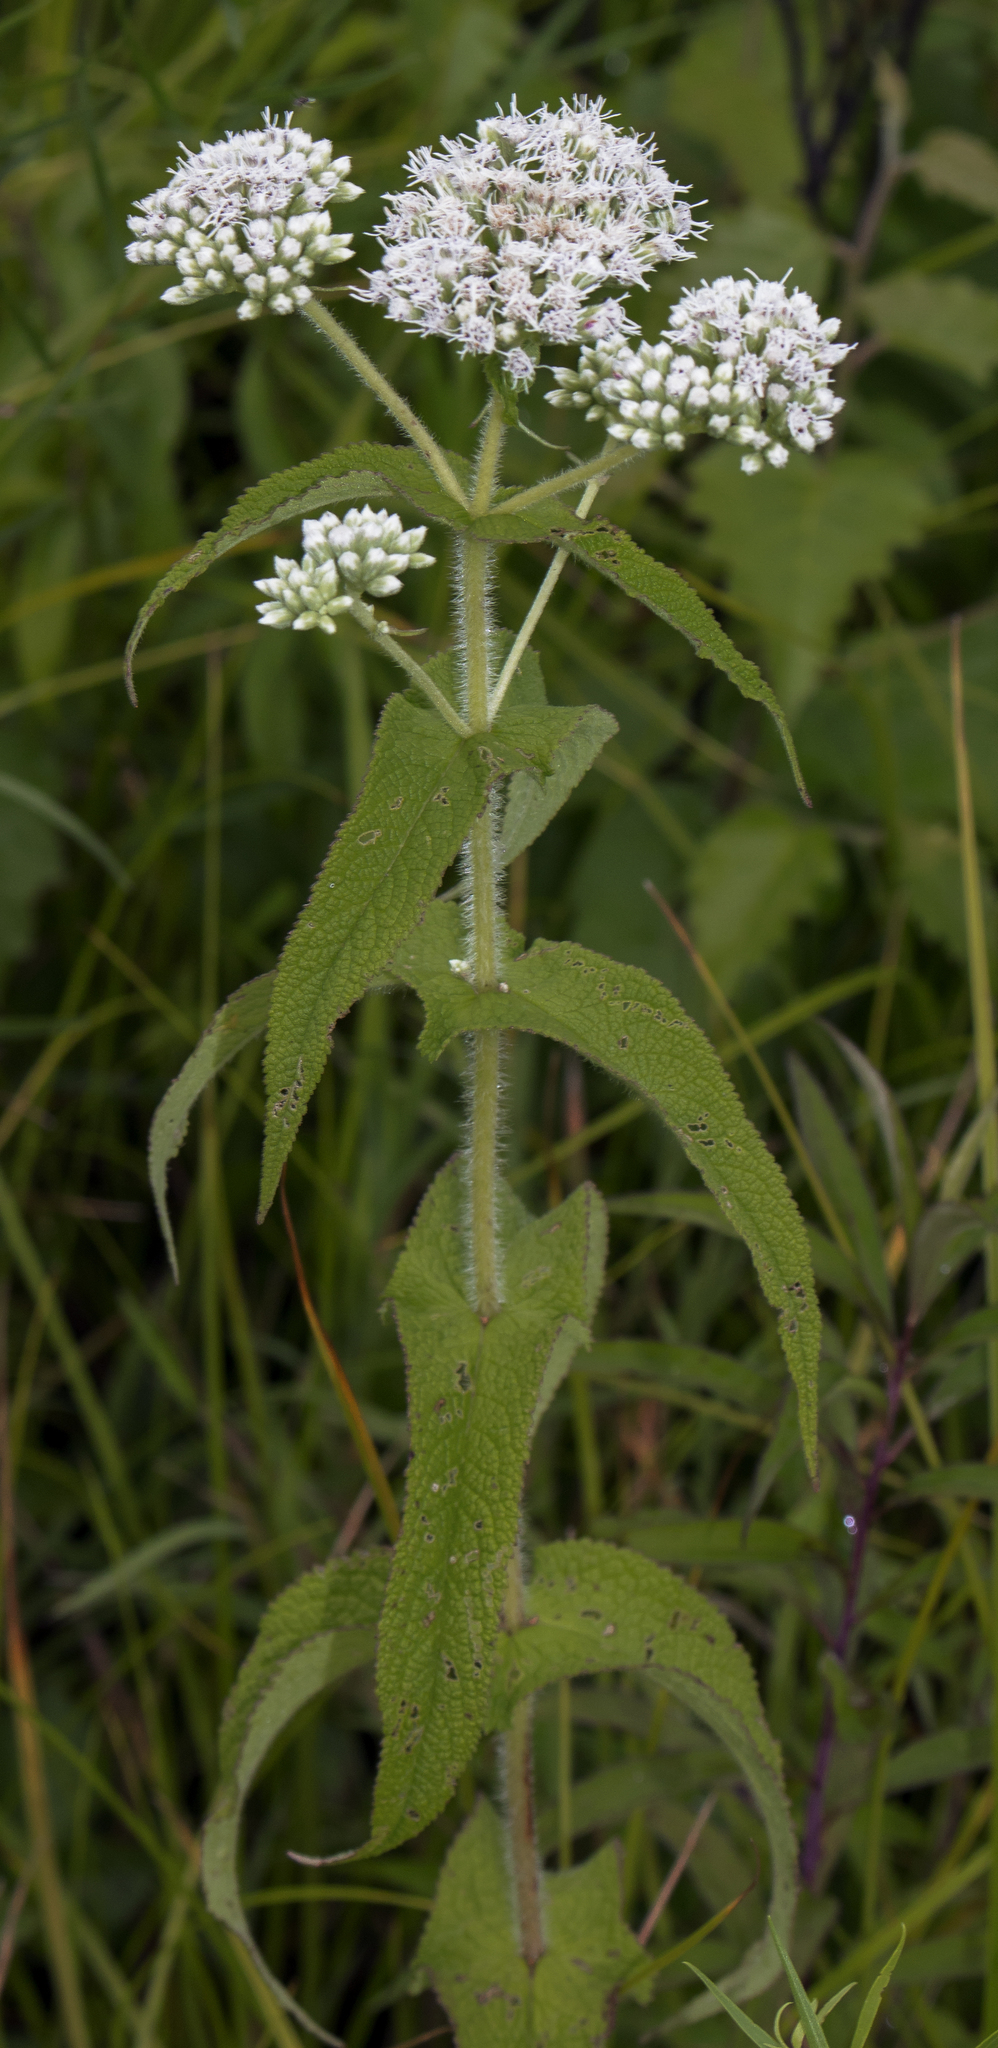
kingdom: Plantae
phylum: Tracheophyta
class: Magnoliopsida
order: Asterales
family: Asteraceae
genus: Eupatorium
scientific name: Eupatorium perfoliatum
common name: Boneset
